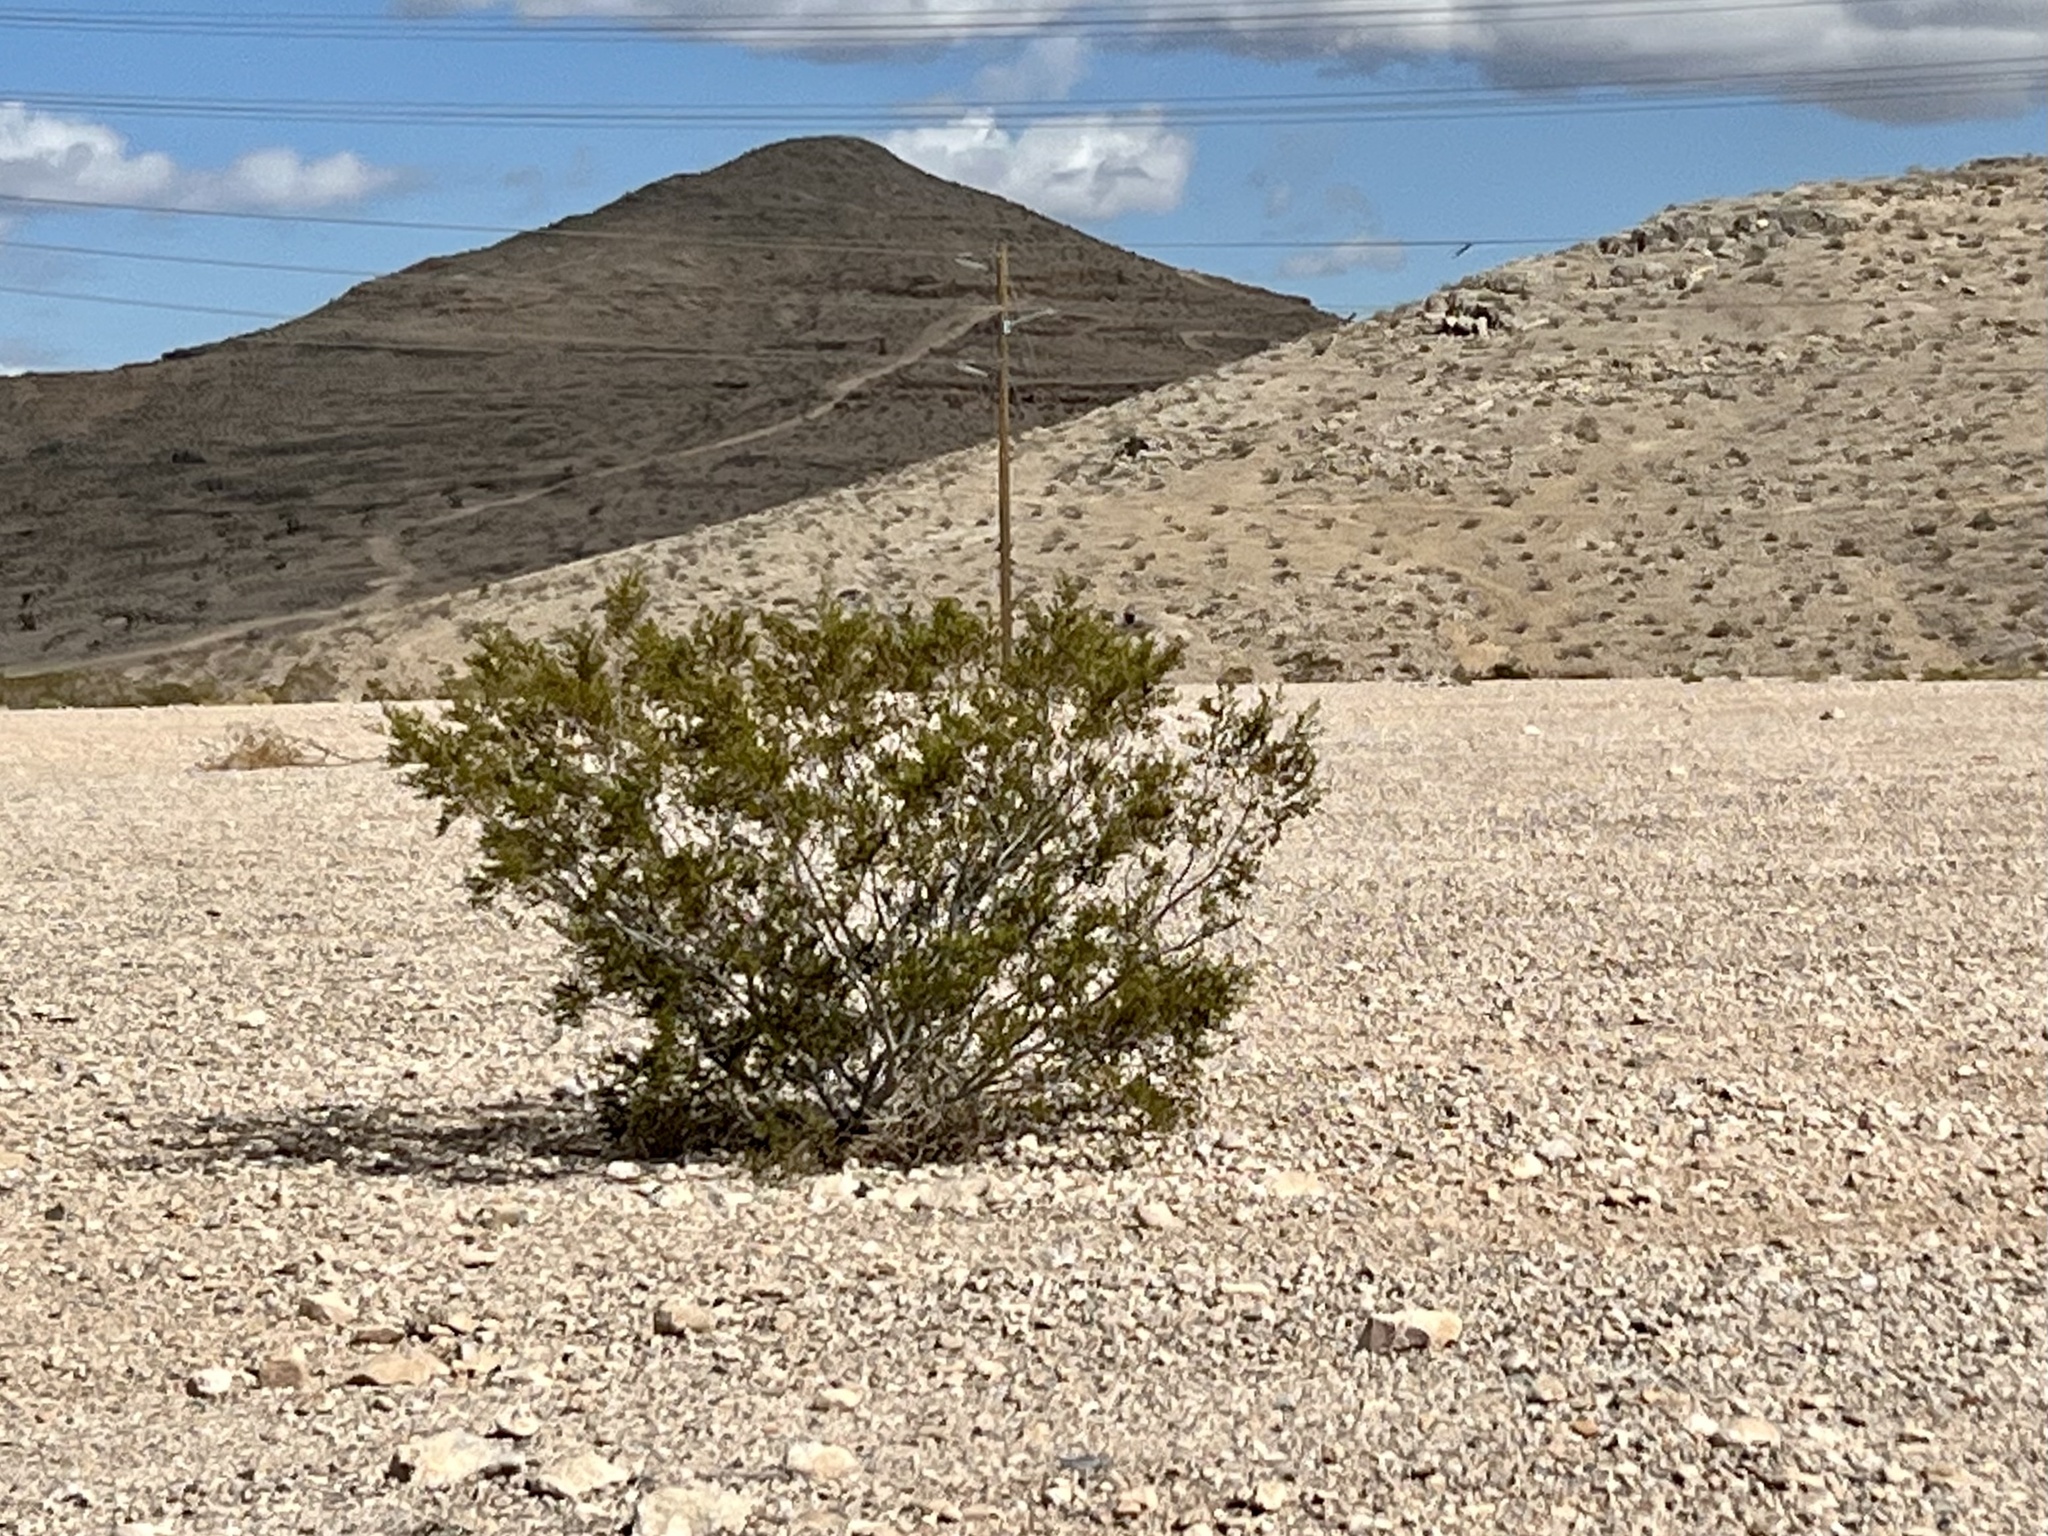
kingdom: Plantae
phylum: Tracheophyta
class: Magnoliopsida
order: Zygophyllales
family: Zygophyllaceae
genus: Larrea
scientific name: Larrea tridentata
